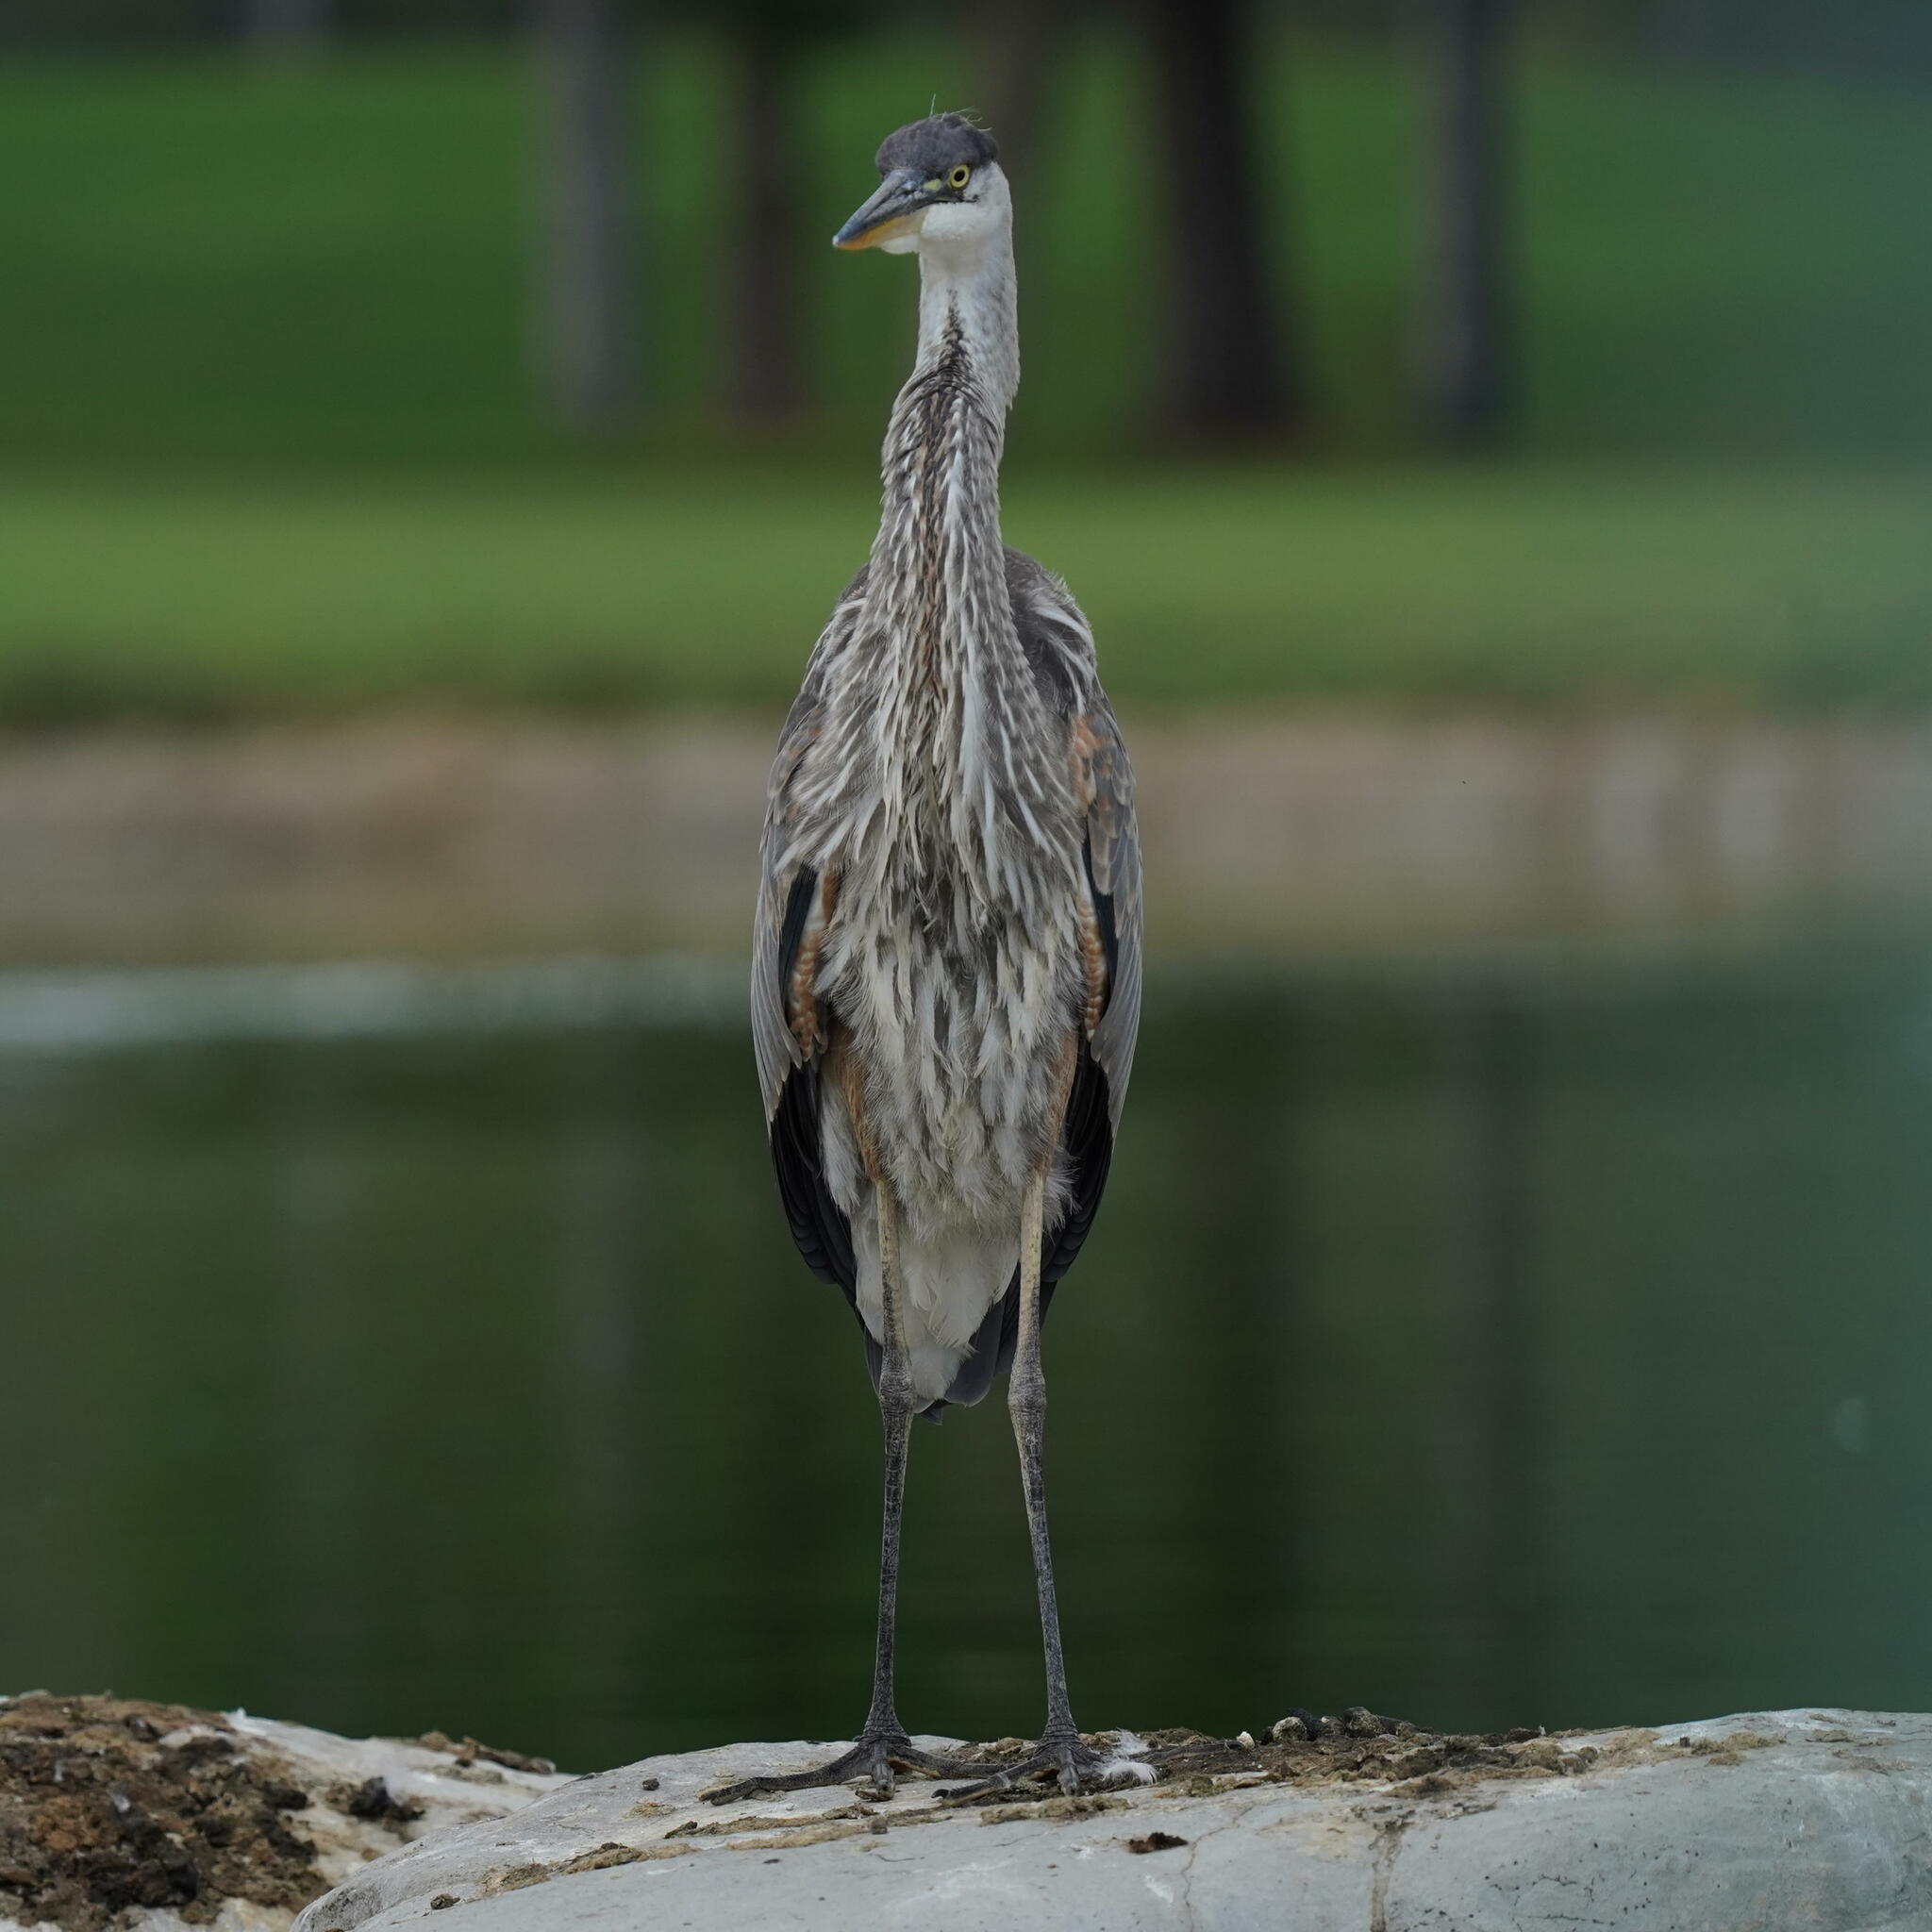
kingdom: Animalia
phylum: Chordata
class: Aves
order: Pelecaniformes
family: Ardeidae
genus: Ardea
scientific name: Ardea herodias
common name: Great blue heron
